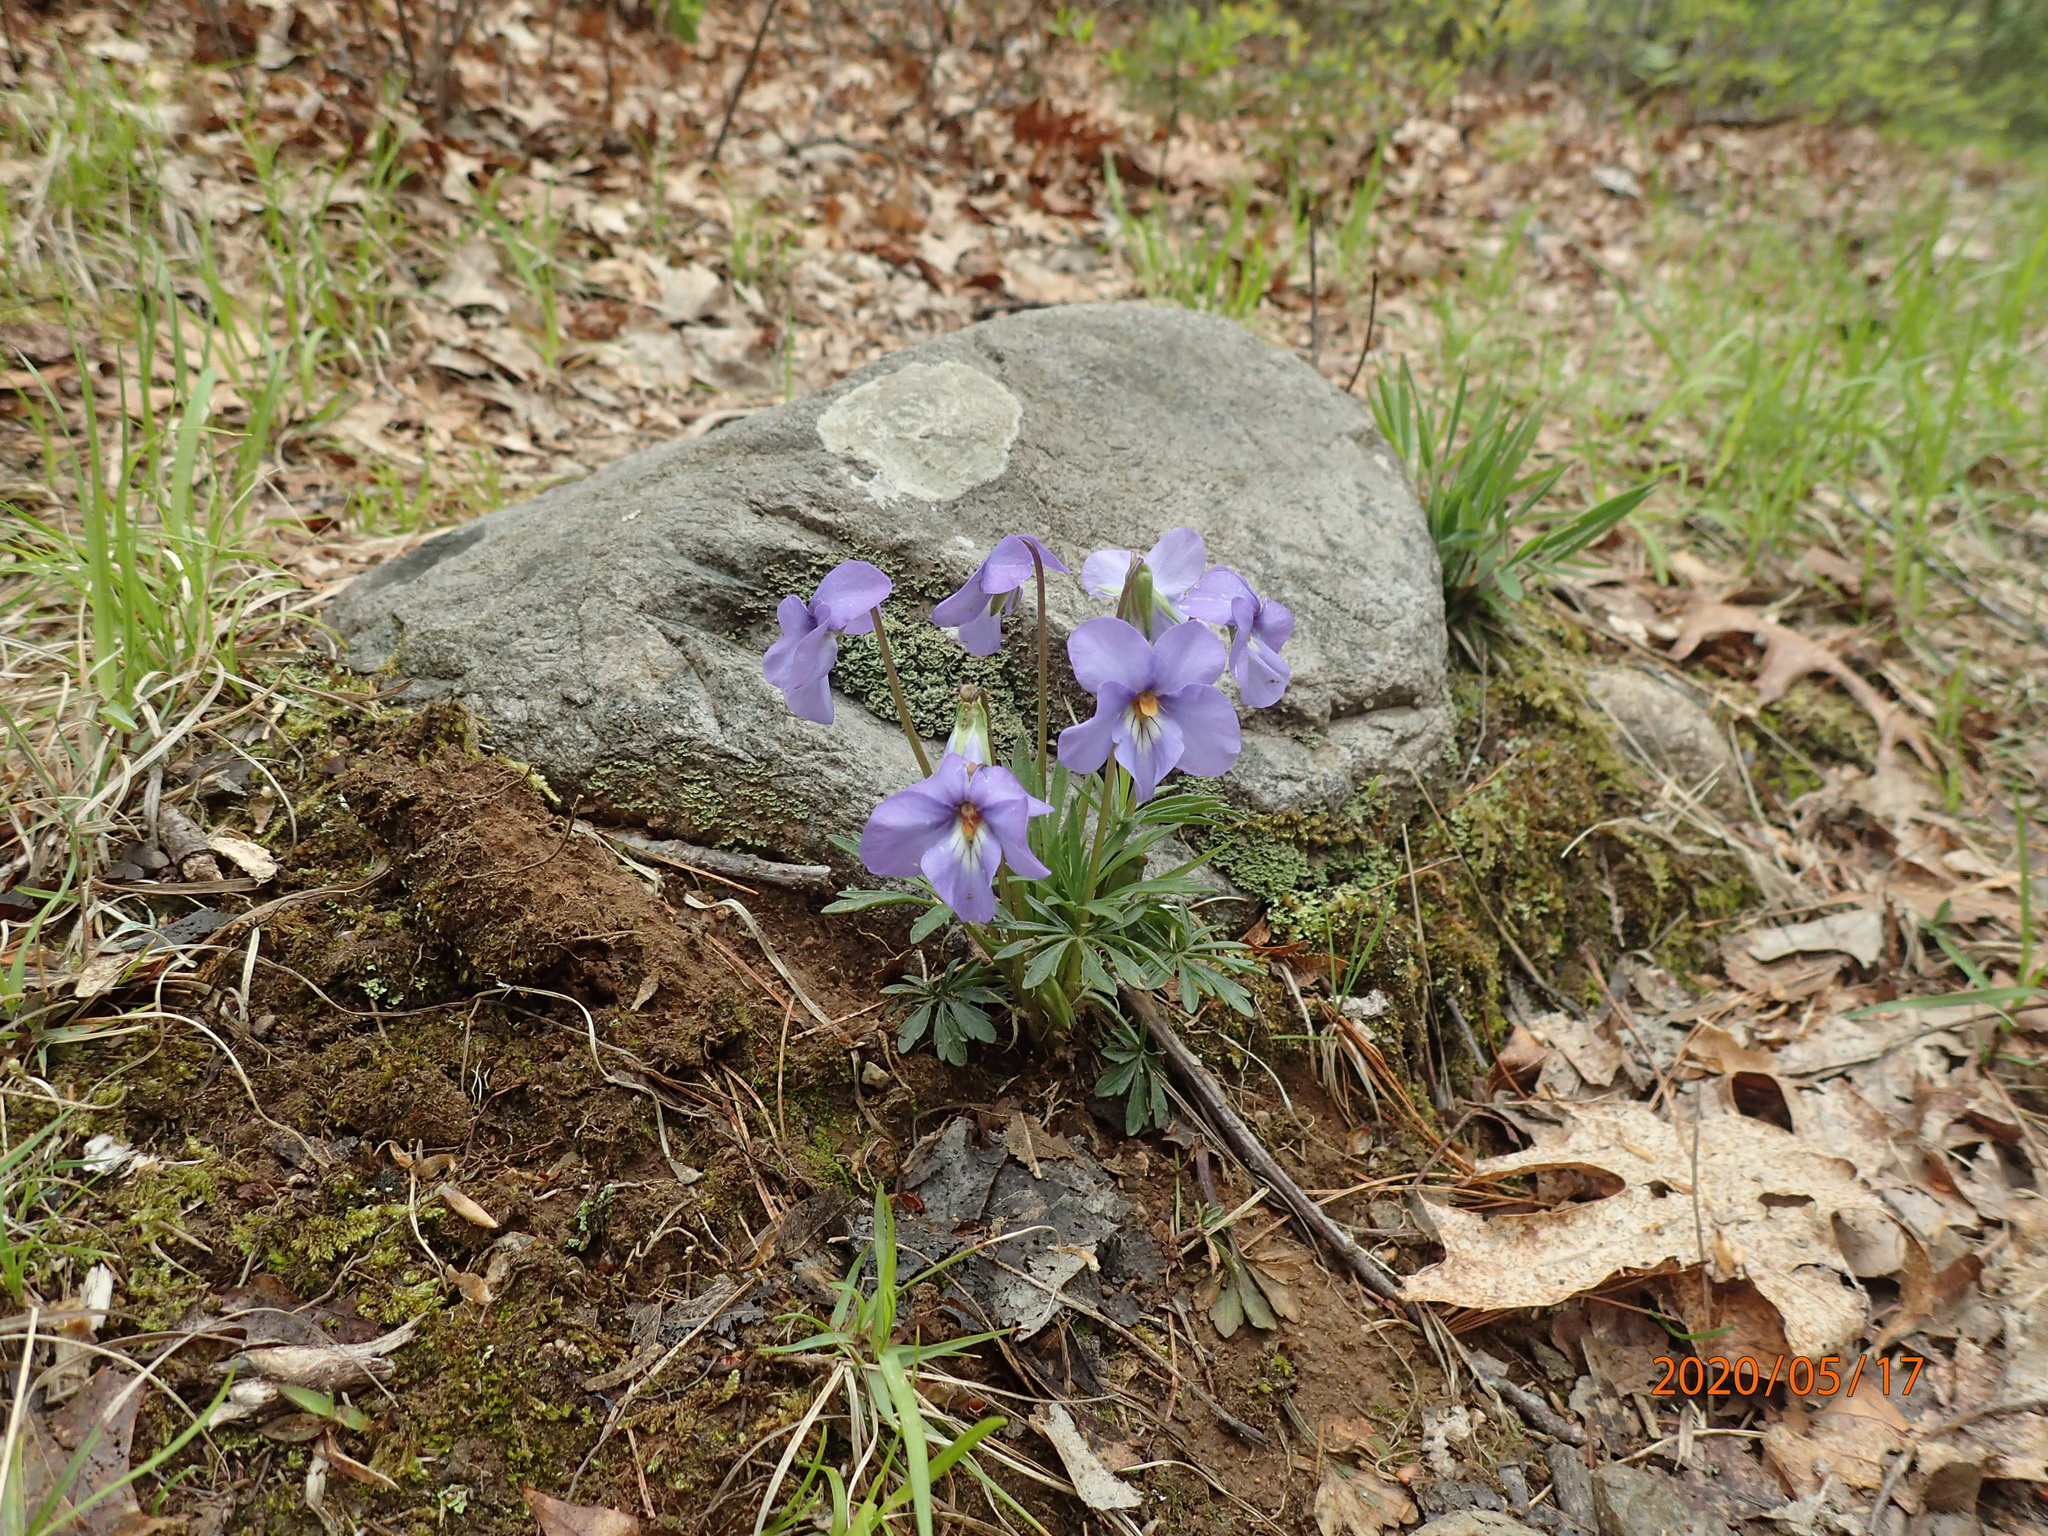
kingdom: Plantae
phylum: Tracheophyta
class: Magnoliopsida
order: Malpighiales
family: Violaceae
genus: Viola
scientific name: Viola pedata
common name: Pansy violet
